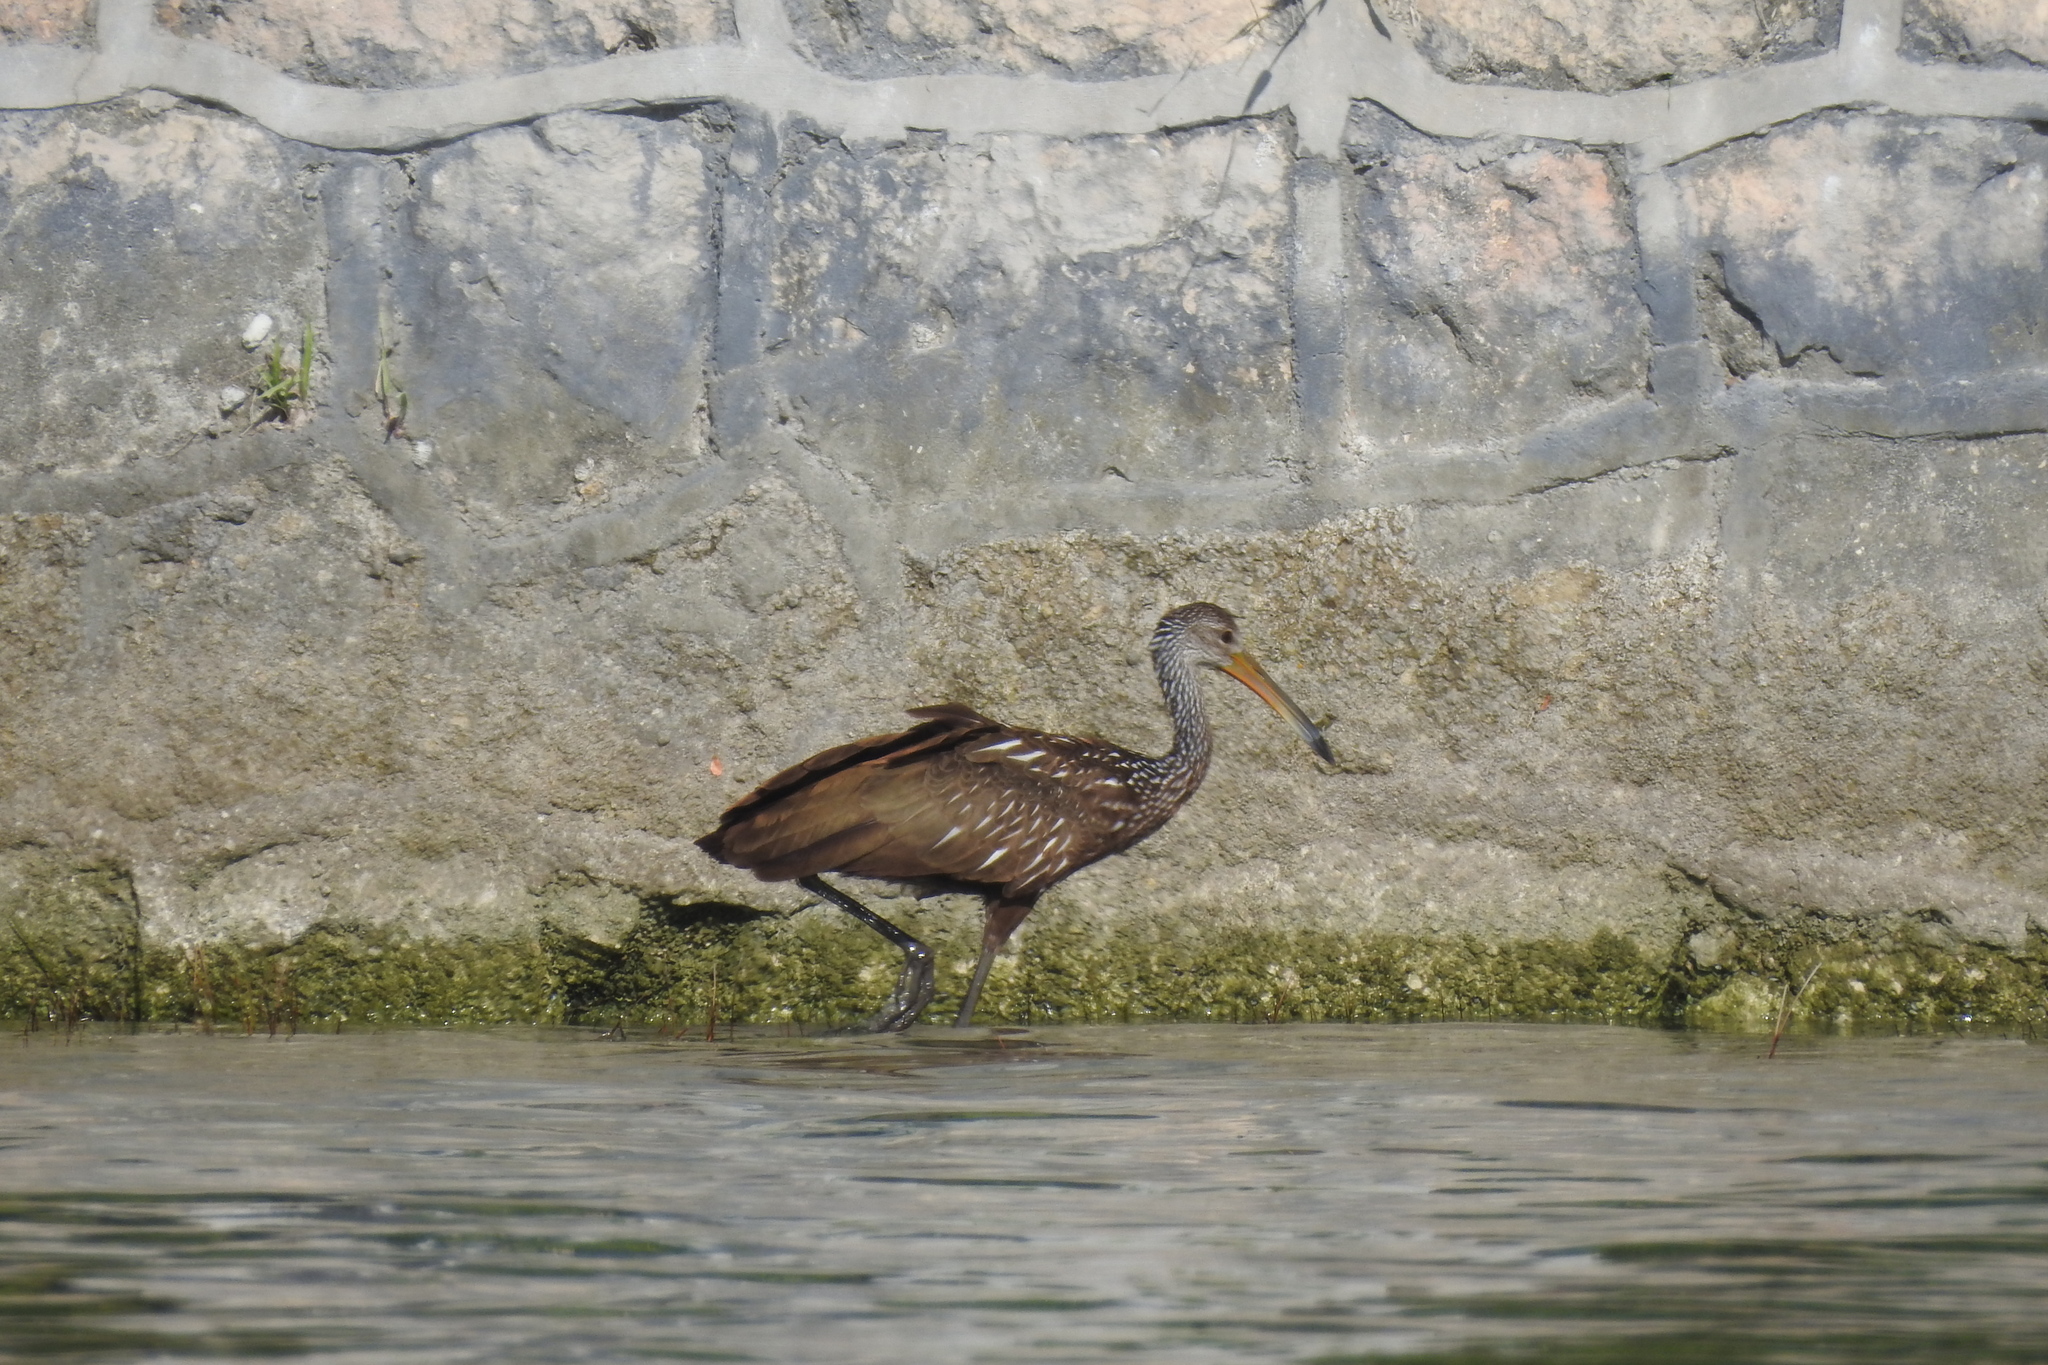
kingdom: Animalia
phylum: Chordata
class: Aves
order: Gruiformes
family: Aramidae
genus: Aramus
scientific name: Aramus guarauna
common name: Limpkin
